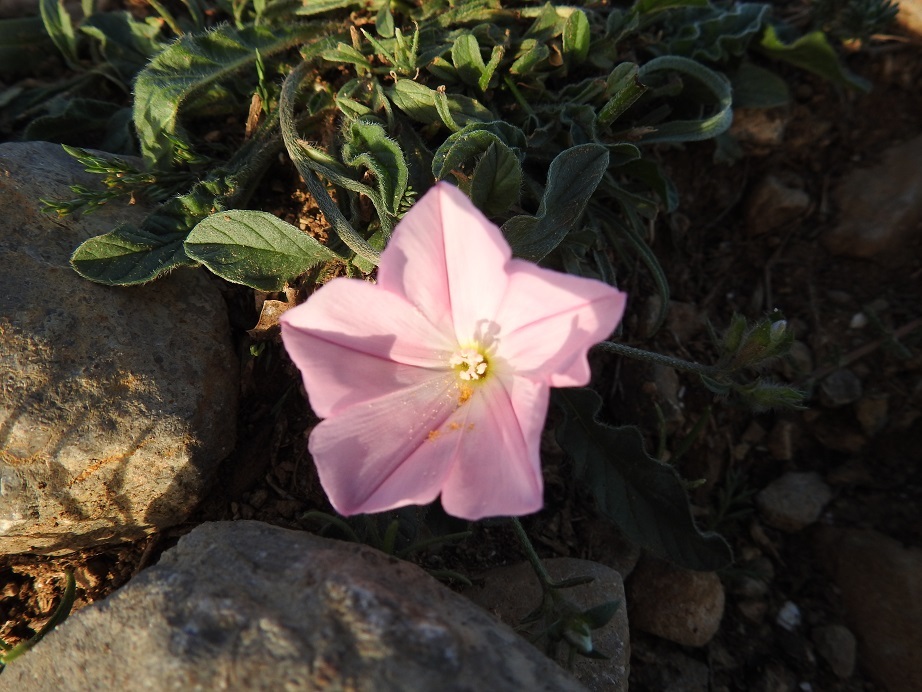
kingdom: Plantae
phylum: Tracheophyta
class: Magnoliopsida
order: Solanales
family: Convolvulaceae
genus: Convolvulus
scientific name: Convolvulus cantabrica
